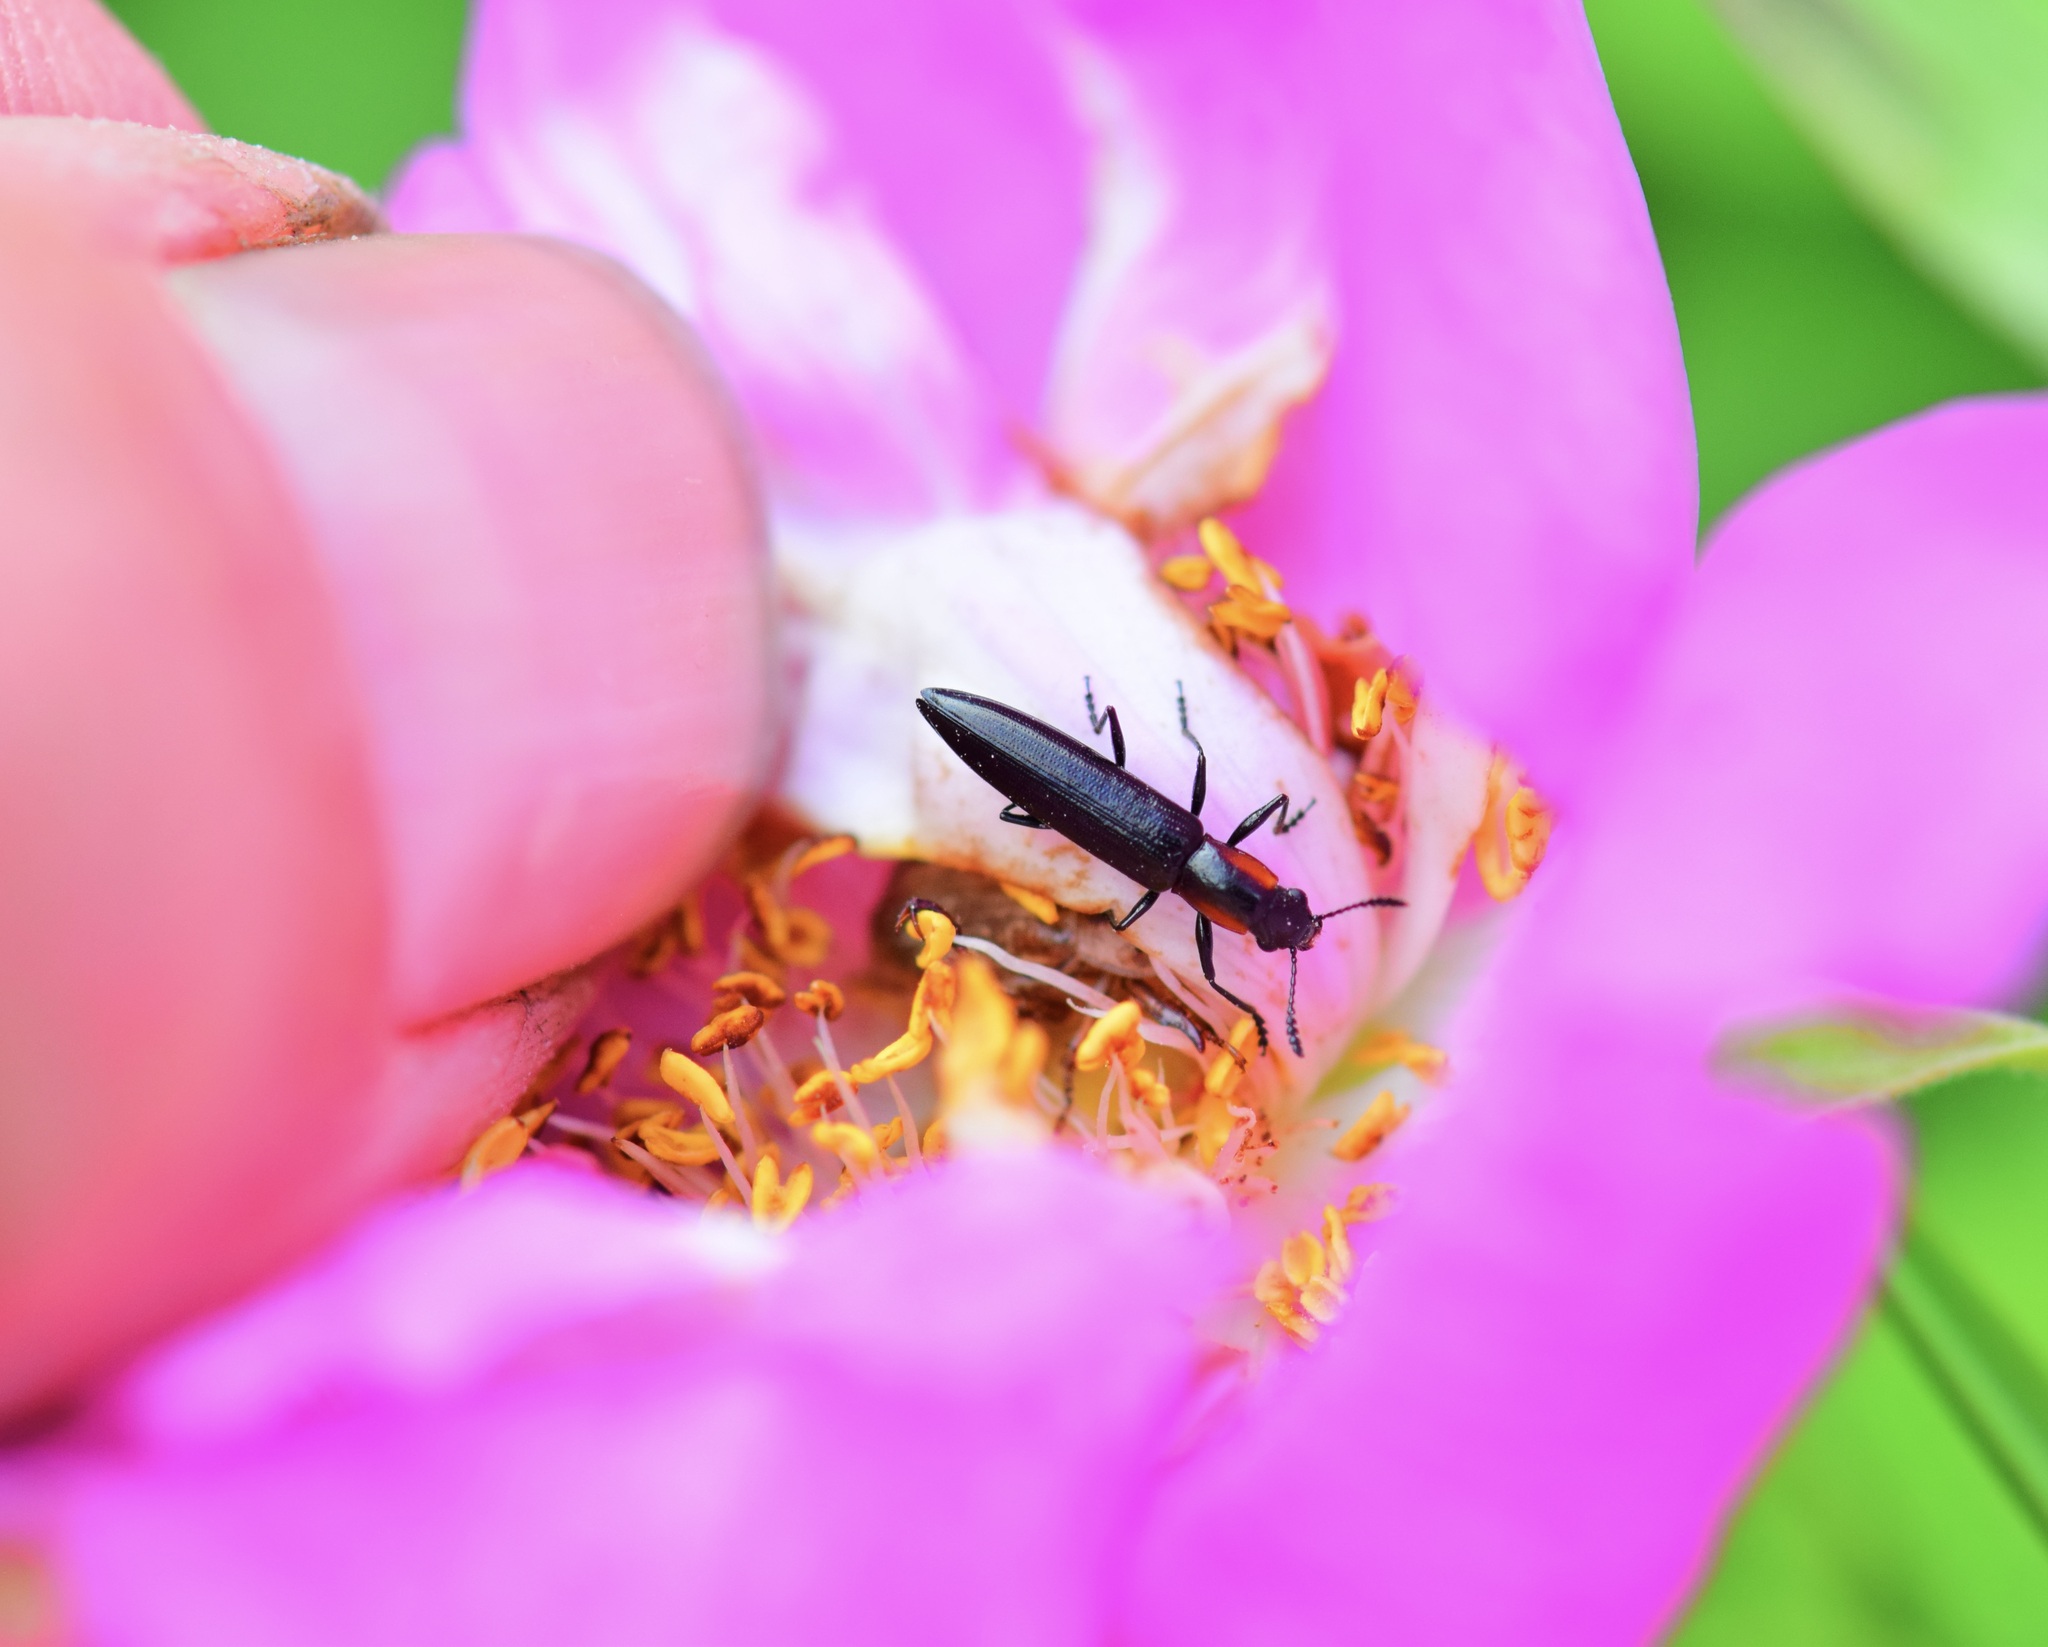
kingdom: Animalia
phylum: Arthropoda
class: Insecta
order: Coleoptera
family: Erotylidae
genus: Acropteroxys
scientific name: Acropteroxys gracilis
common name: Slender lizard beetle
